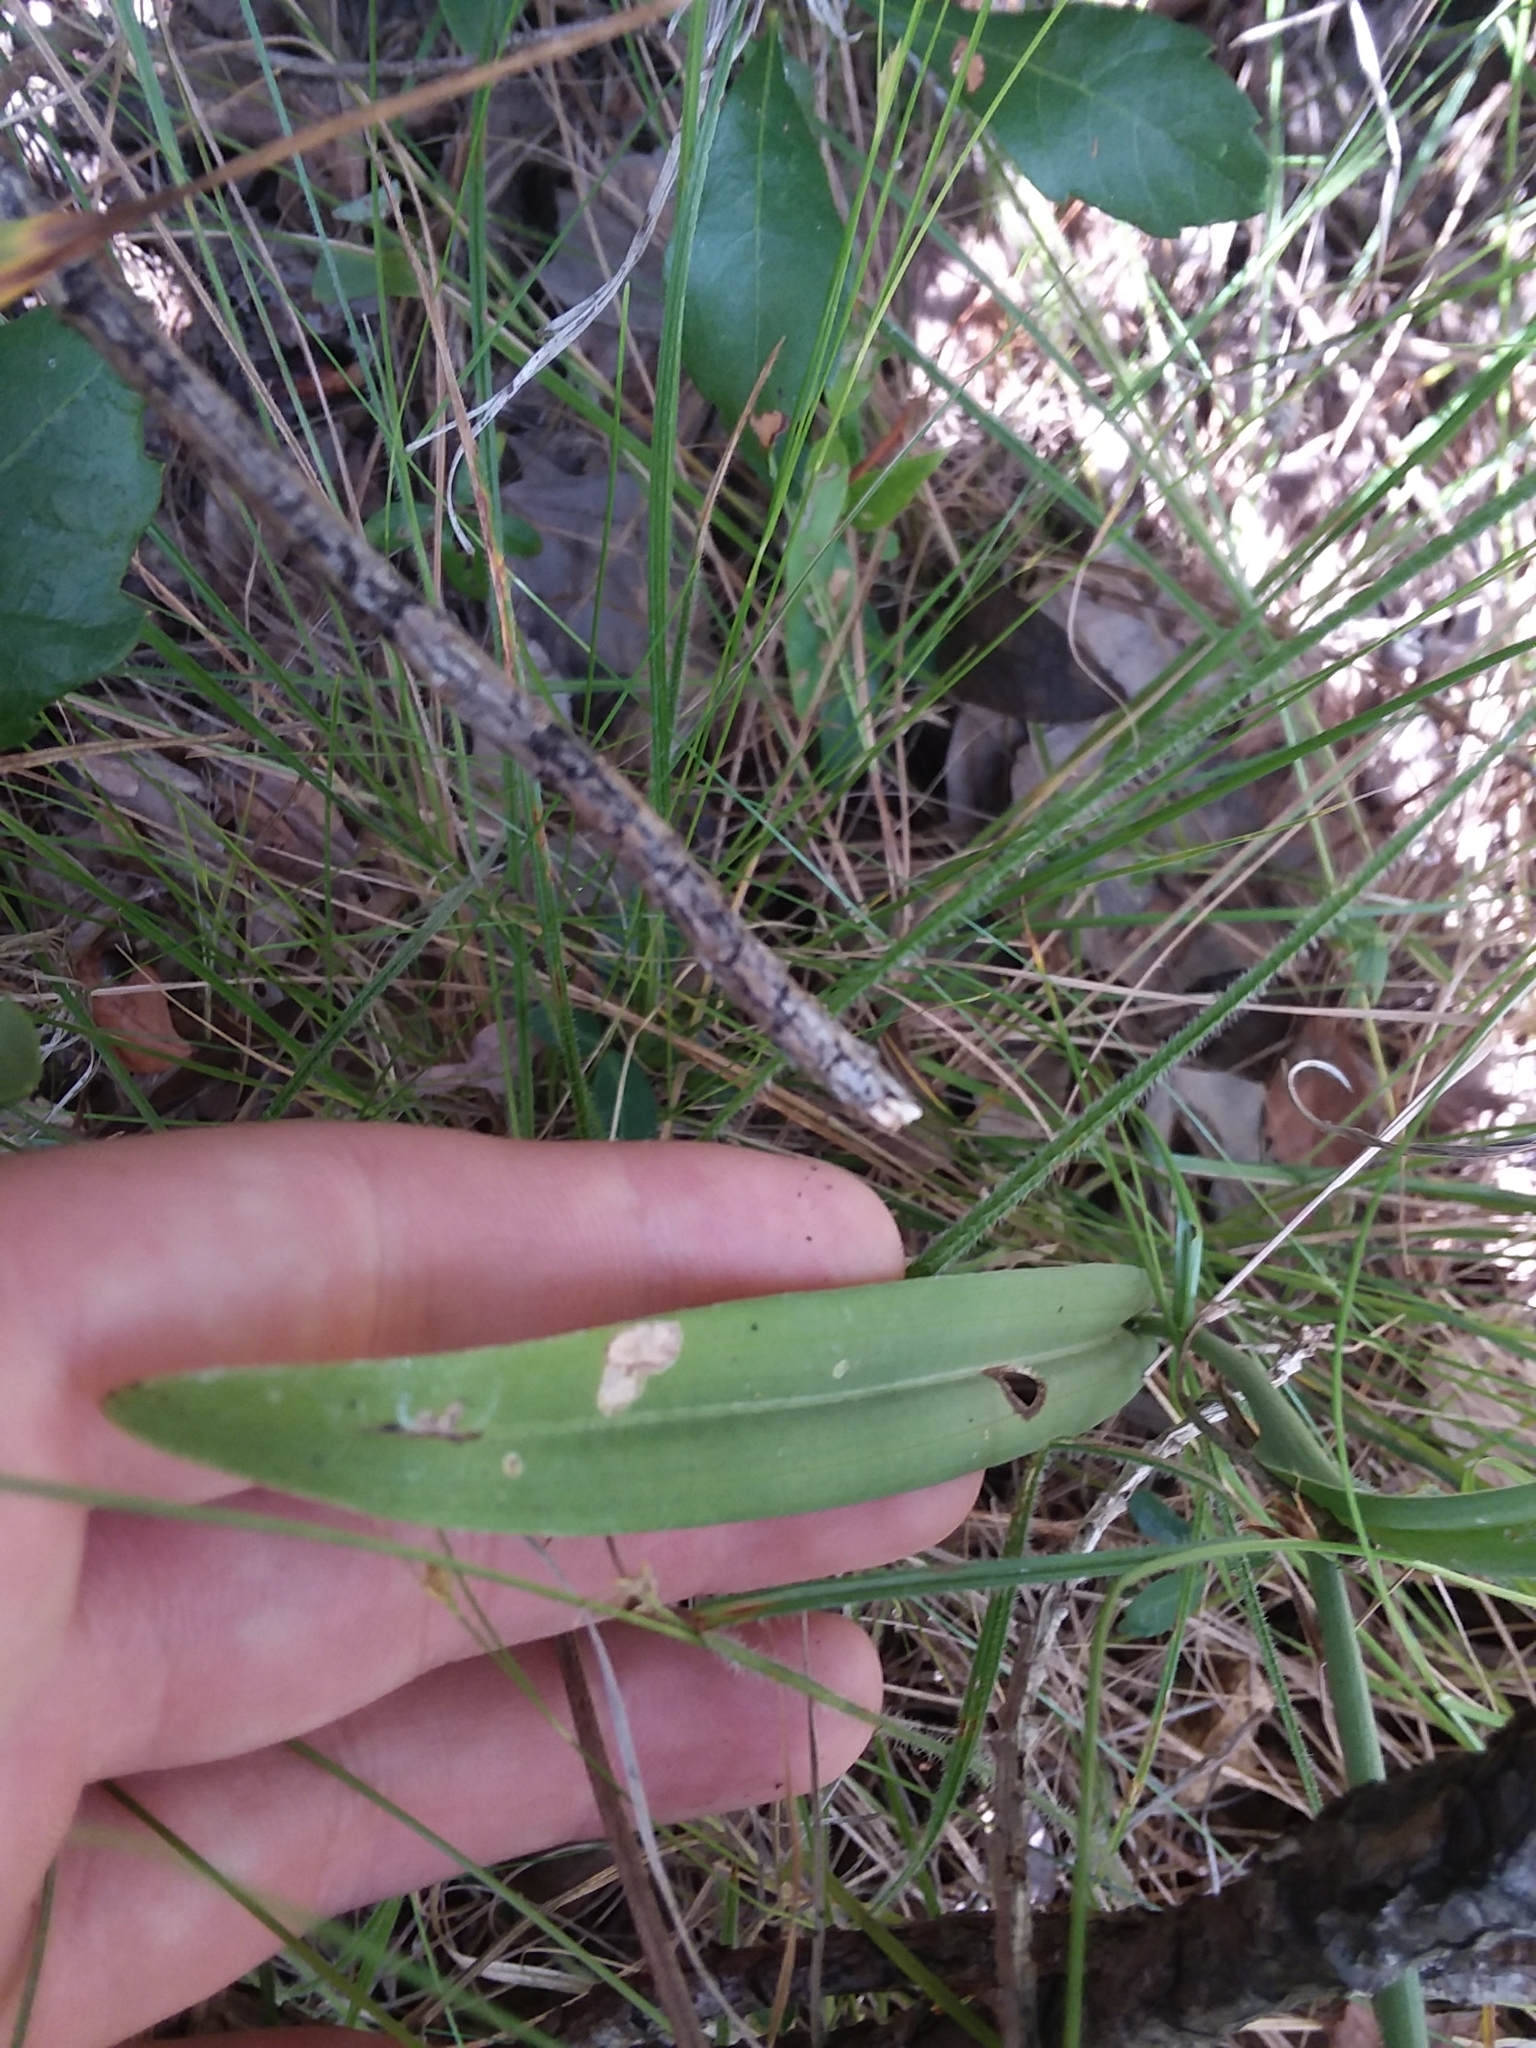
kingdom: Plantae
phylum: Tracheophyta
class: Liliopsida
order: Asparagales
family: Orchidaceae
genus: Platanthera
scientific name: Platanthera ciliaris
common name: Yellow fringed orchid
